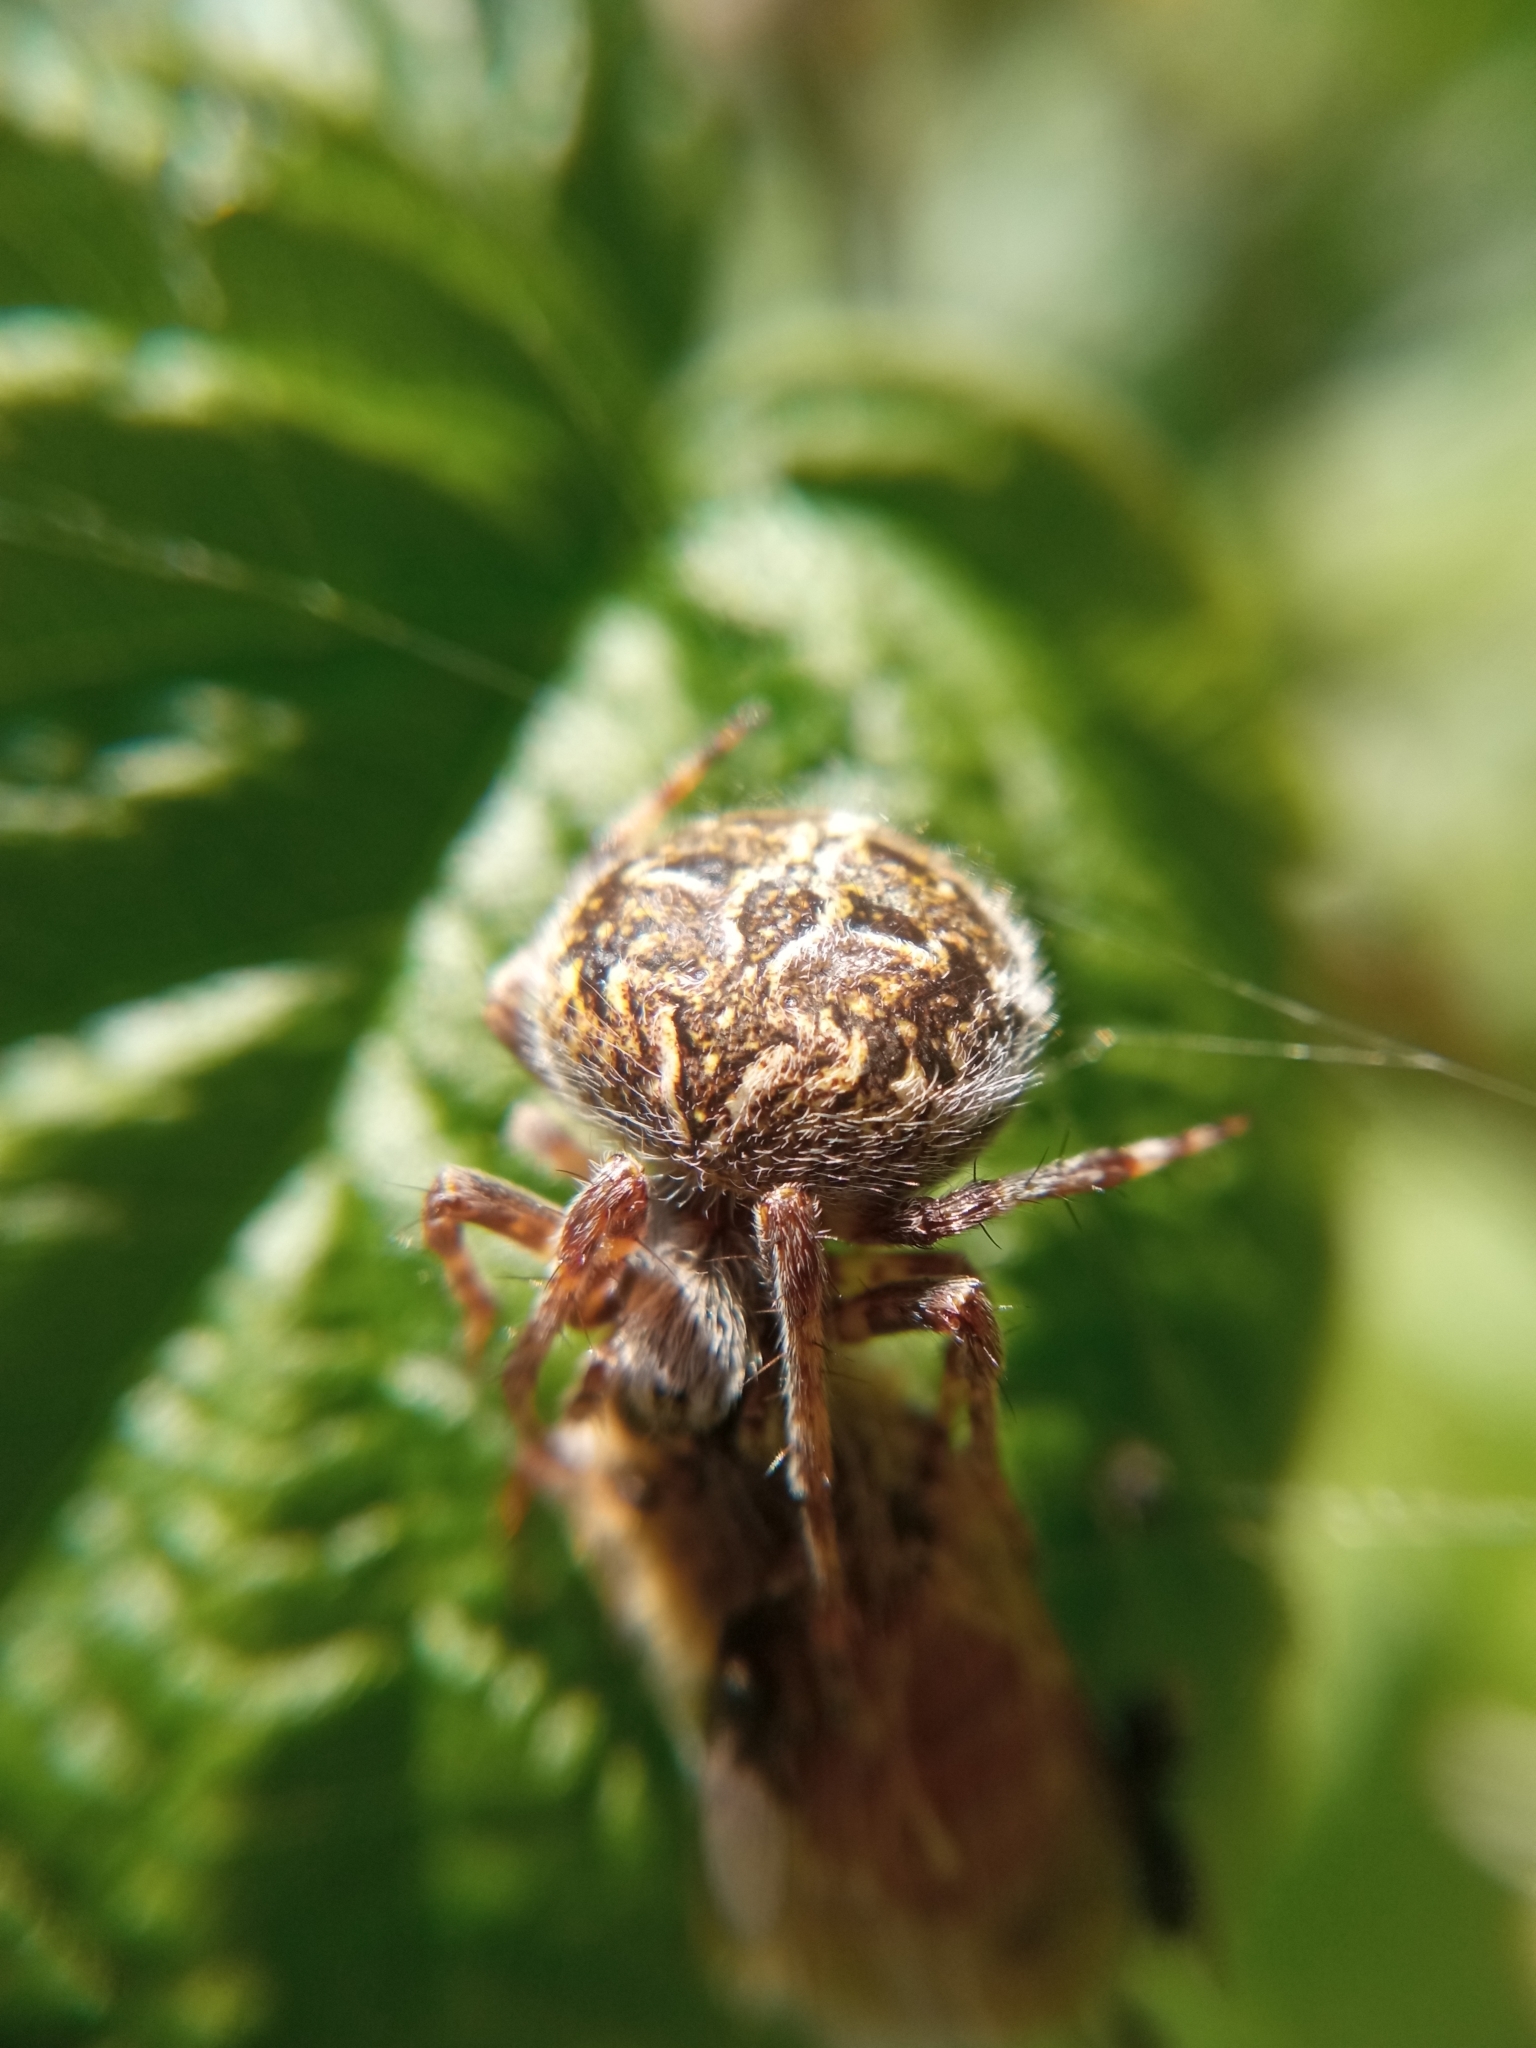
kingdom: Animalia
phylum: Arthropoda
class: Arachnida
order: Araneae
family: Araneidae
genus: Agalenatea
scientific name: Agalenatea redii
